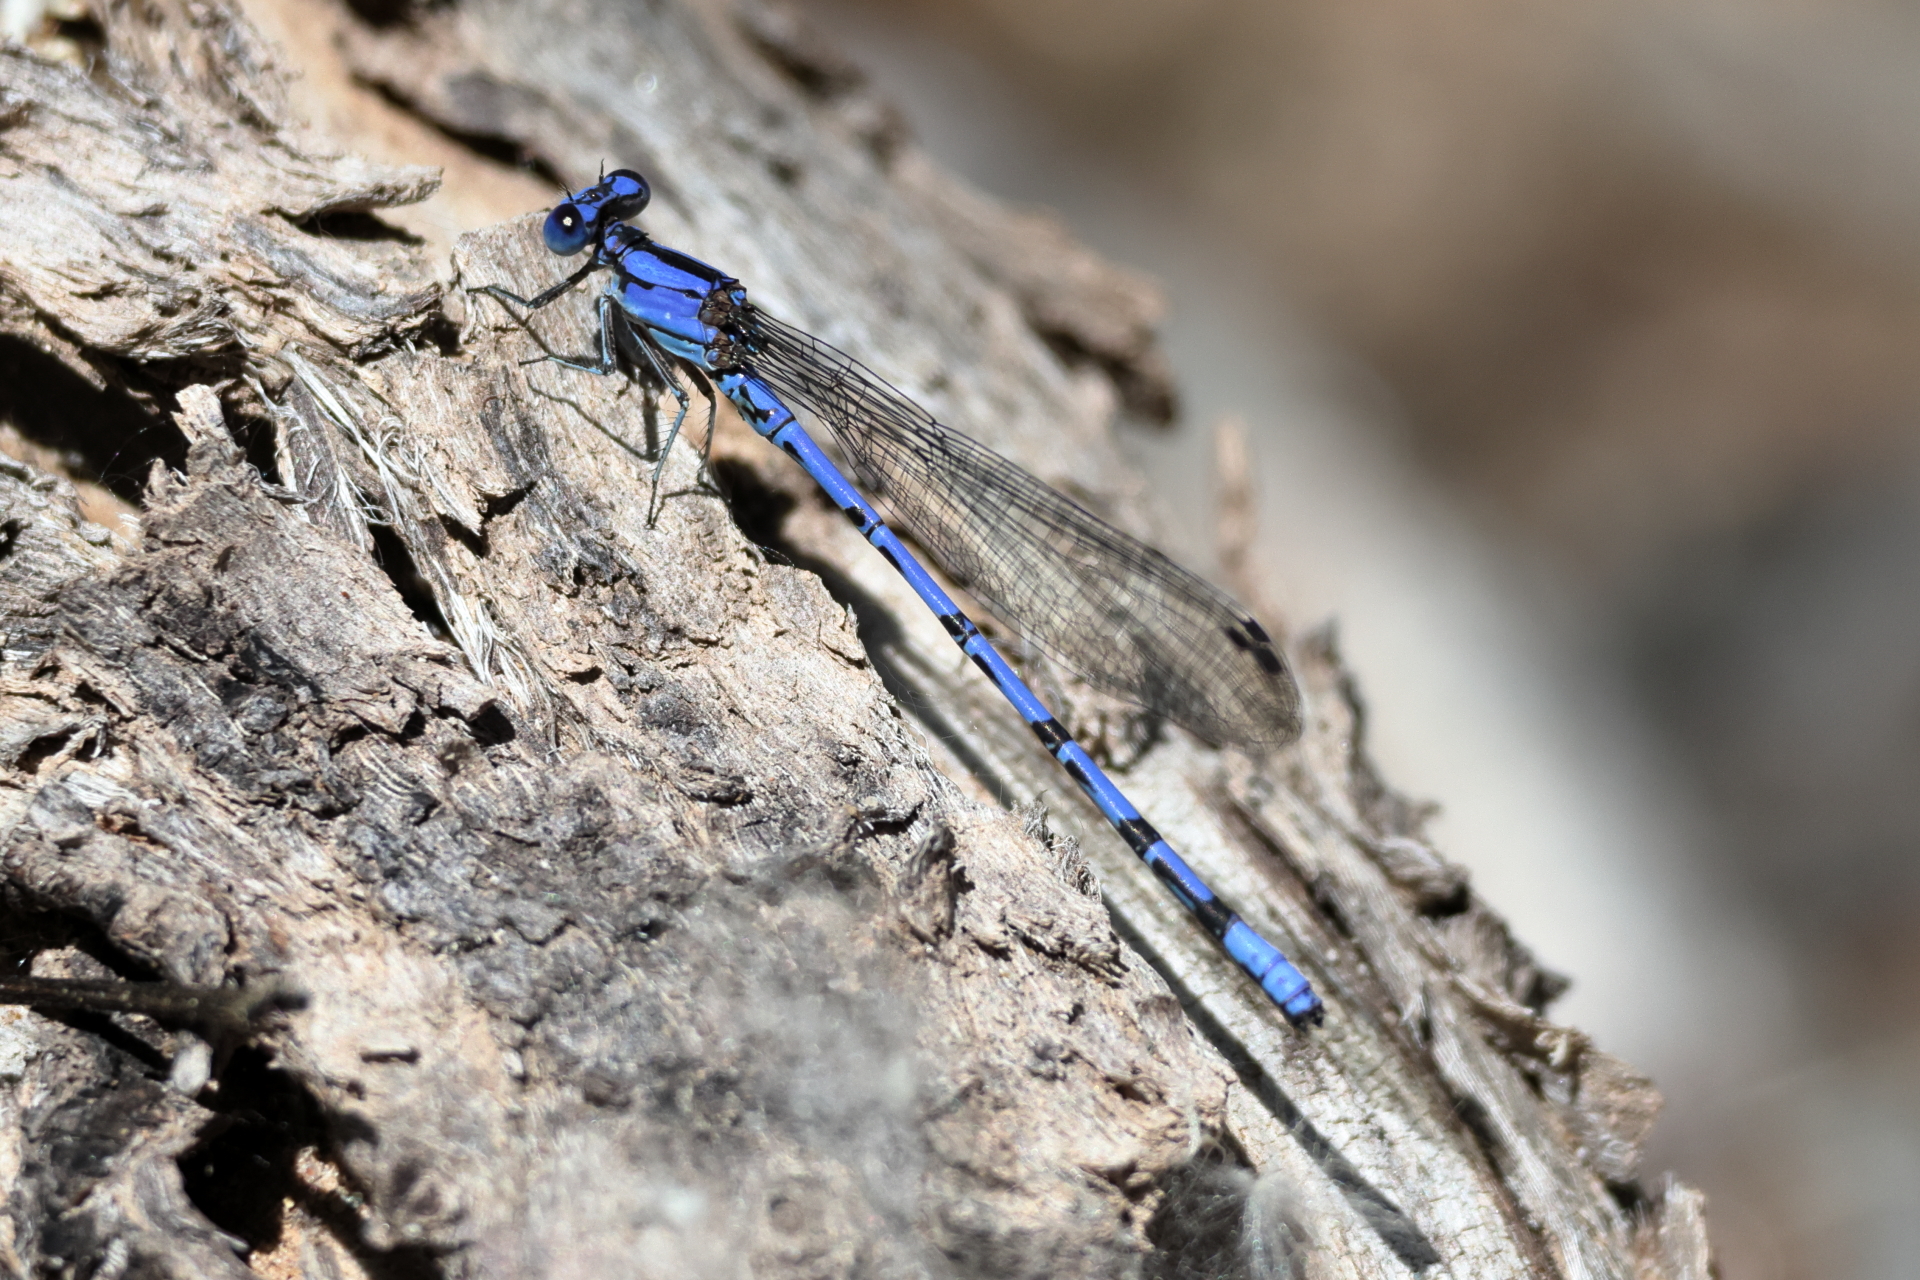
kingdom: Animalia
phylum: Arthropoda
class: Insecta
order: Odonata
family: Coenagrionidae
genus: Argia
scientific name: Argia extranea
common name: Spine-tipped dancer
